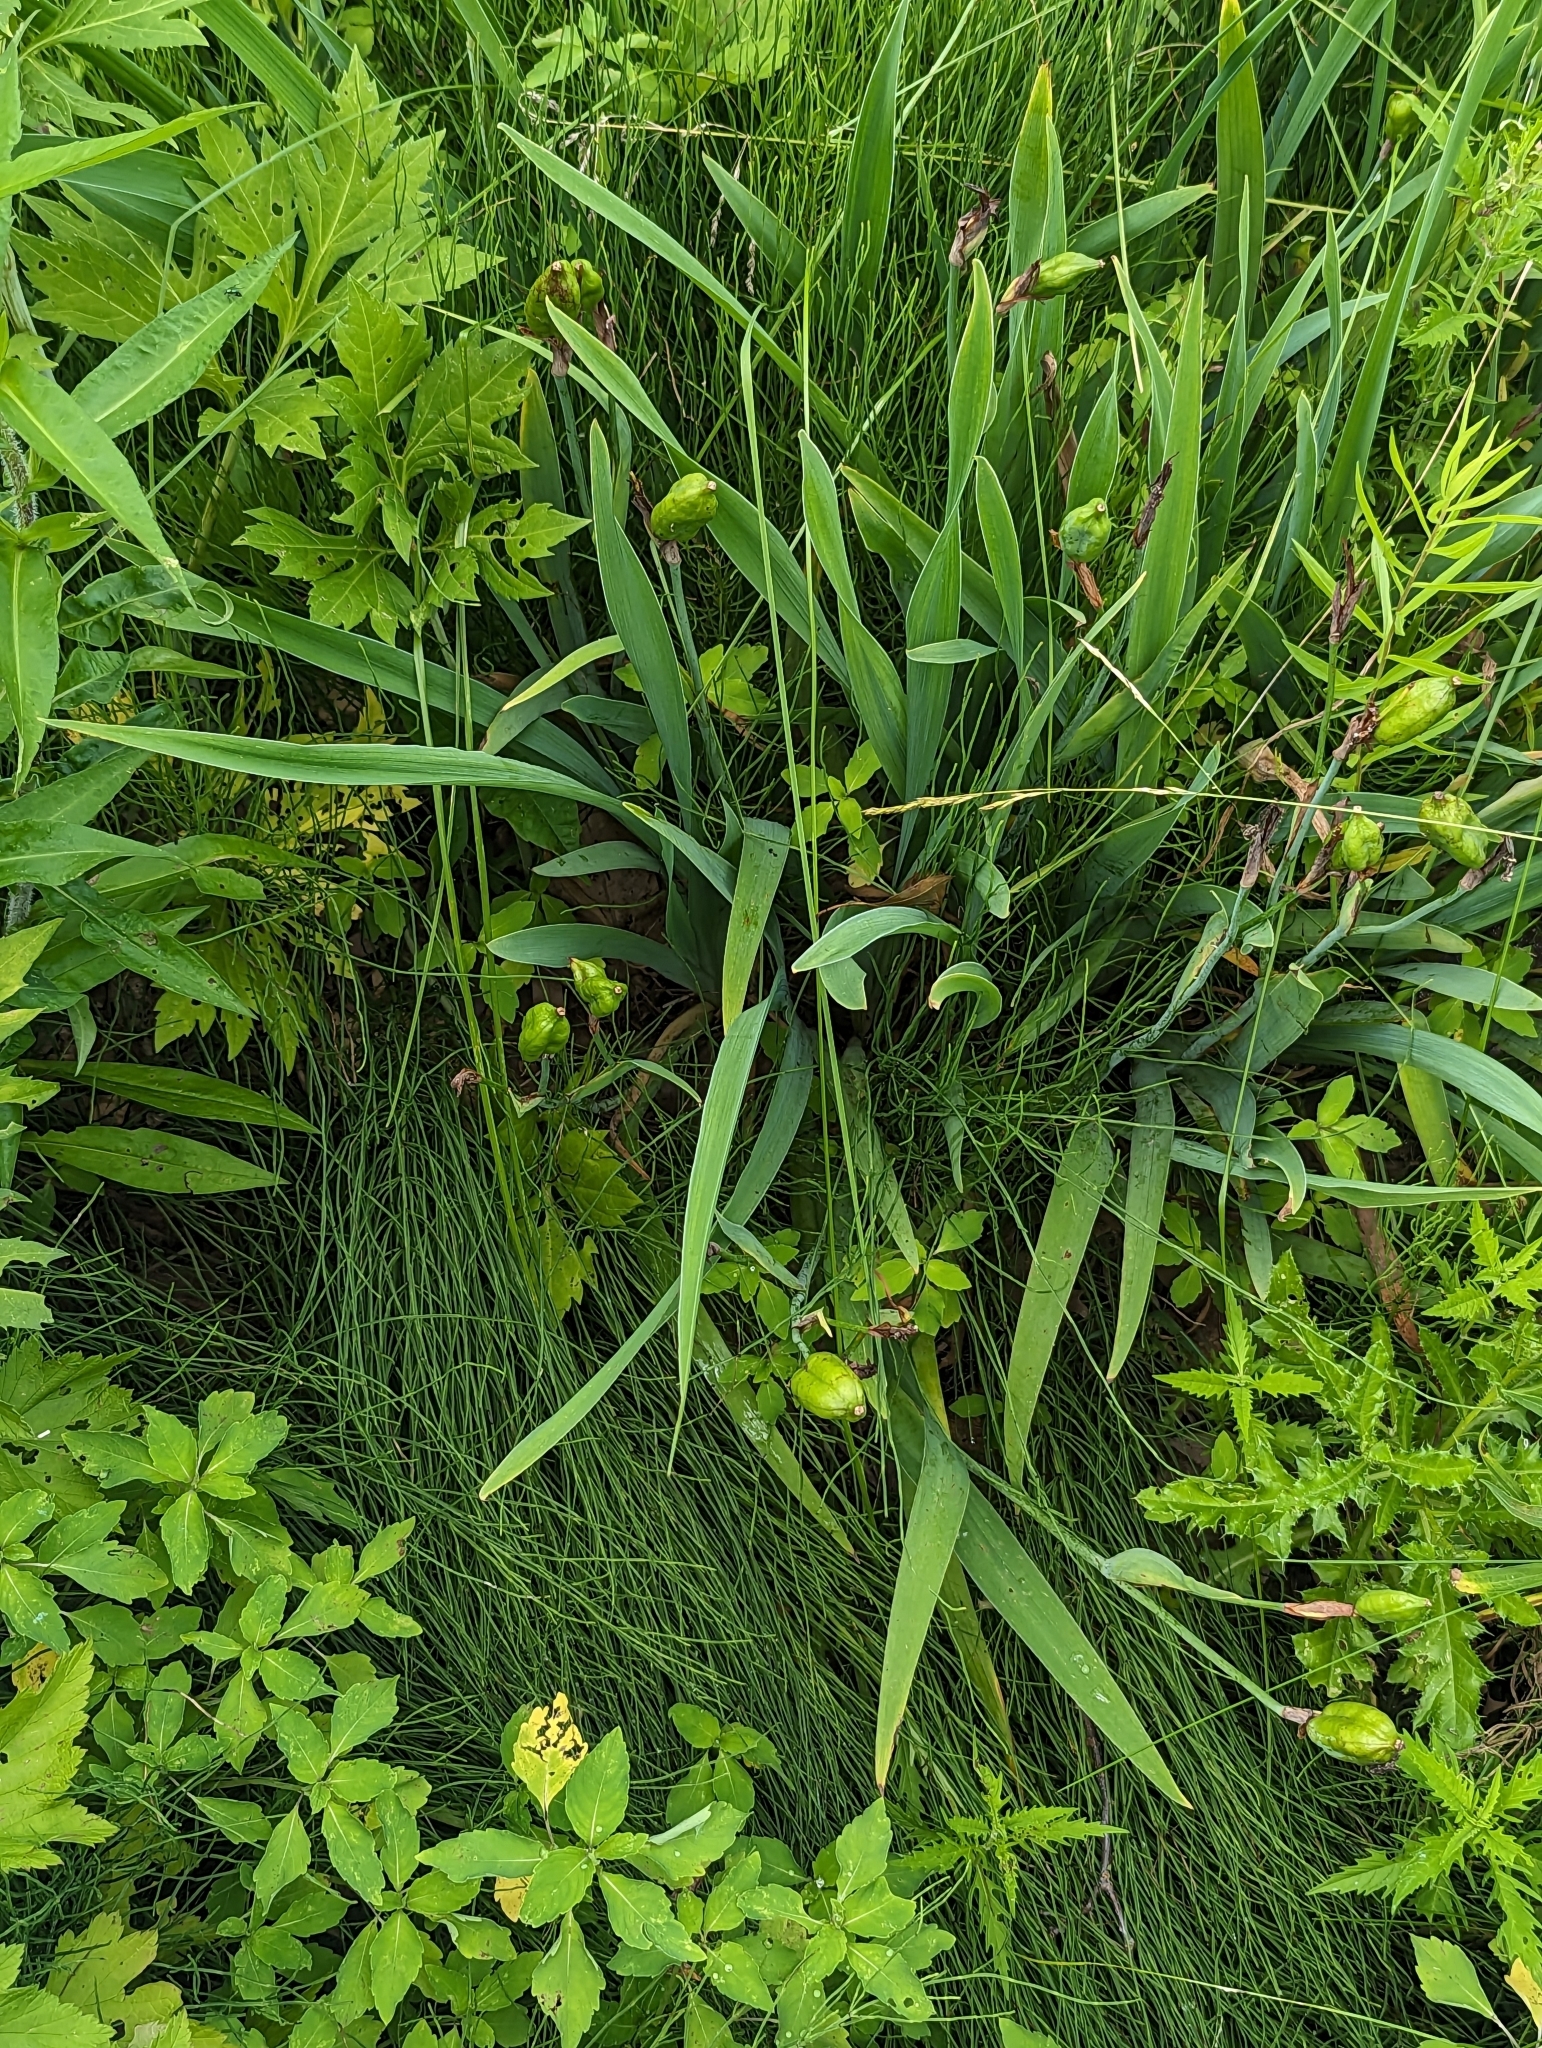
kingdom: Plantae
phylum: Tracheophyta
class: Liliopsida
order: Asparagales
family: Iridaceae
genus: Iris
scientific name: Iris virginica
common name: Southern blue flag
